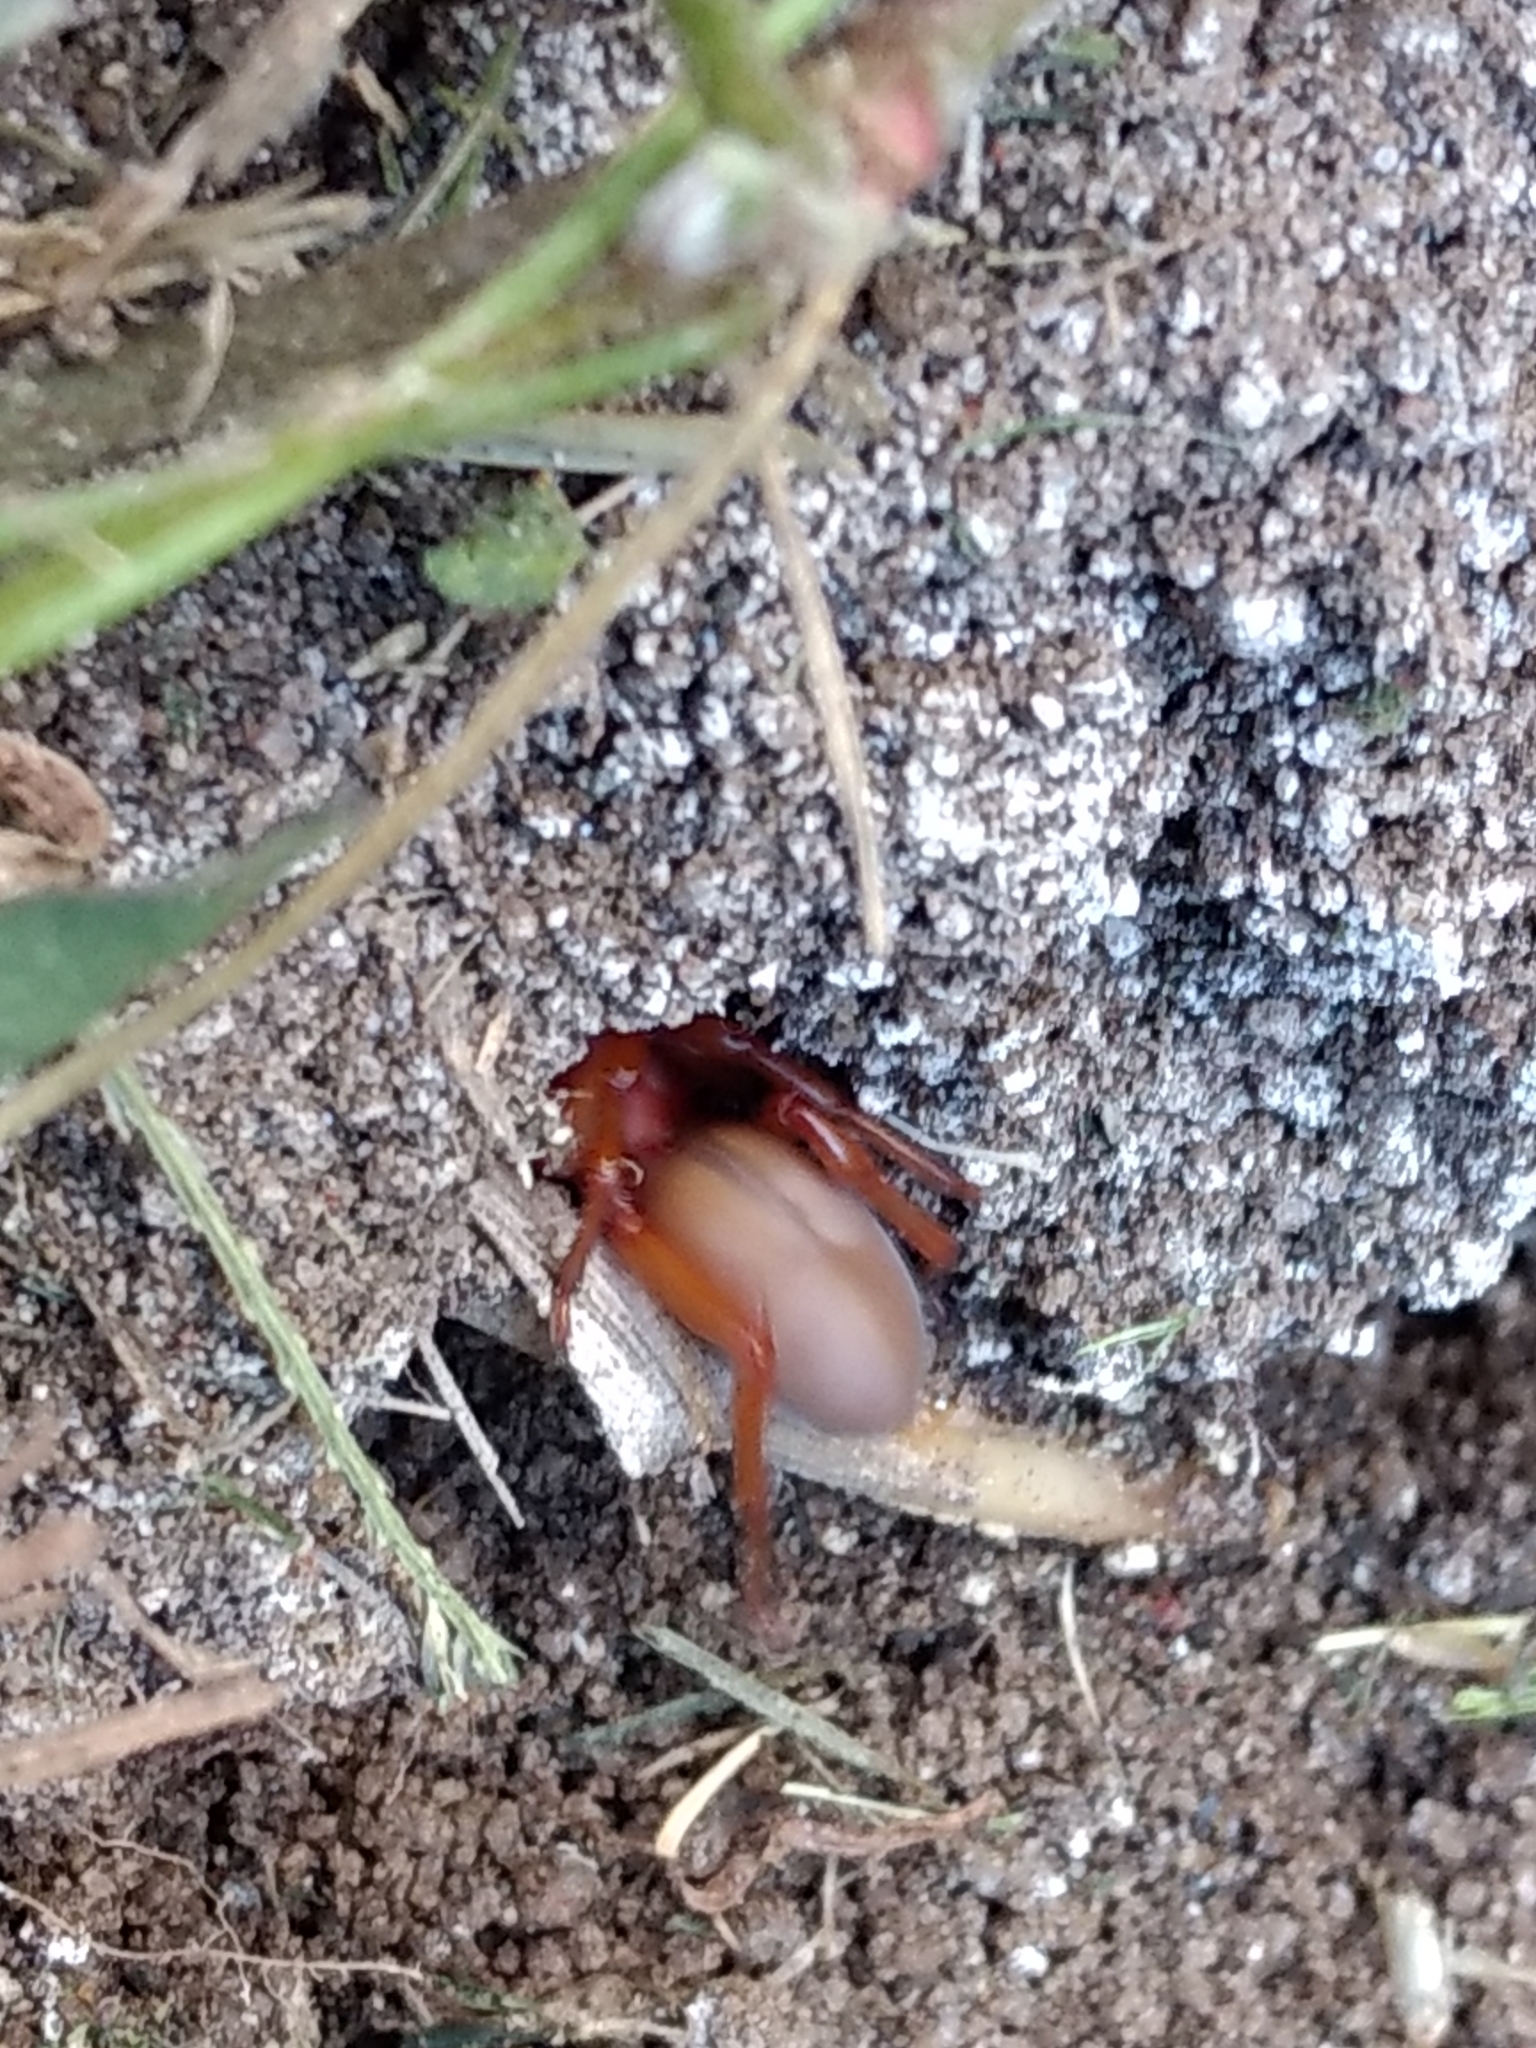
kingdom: Animalia
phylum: Arthropoda
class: Arachnida
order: Araneae
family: Dysderidae
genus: Dysdera
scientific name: Dysdera crocata
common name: Woodlouse spider
